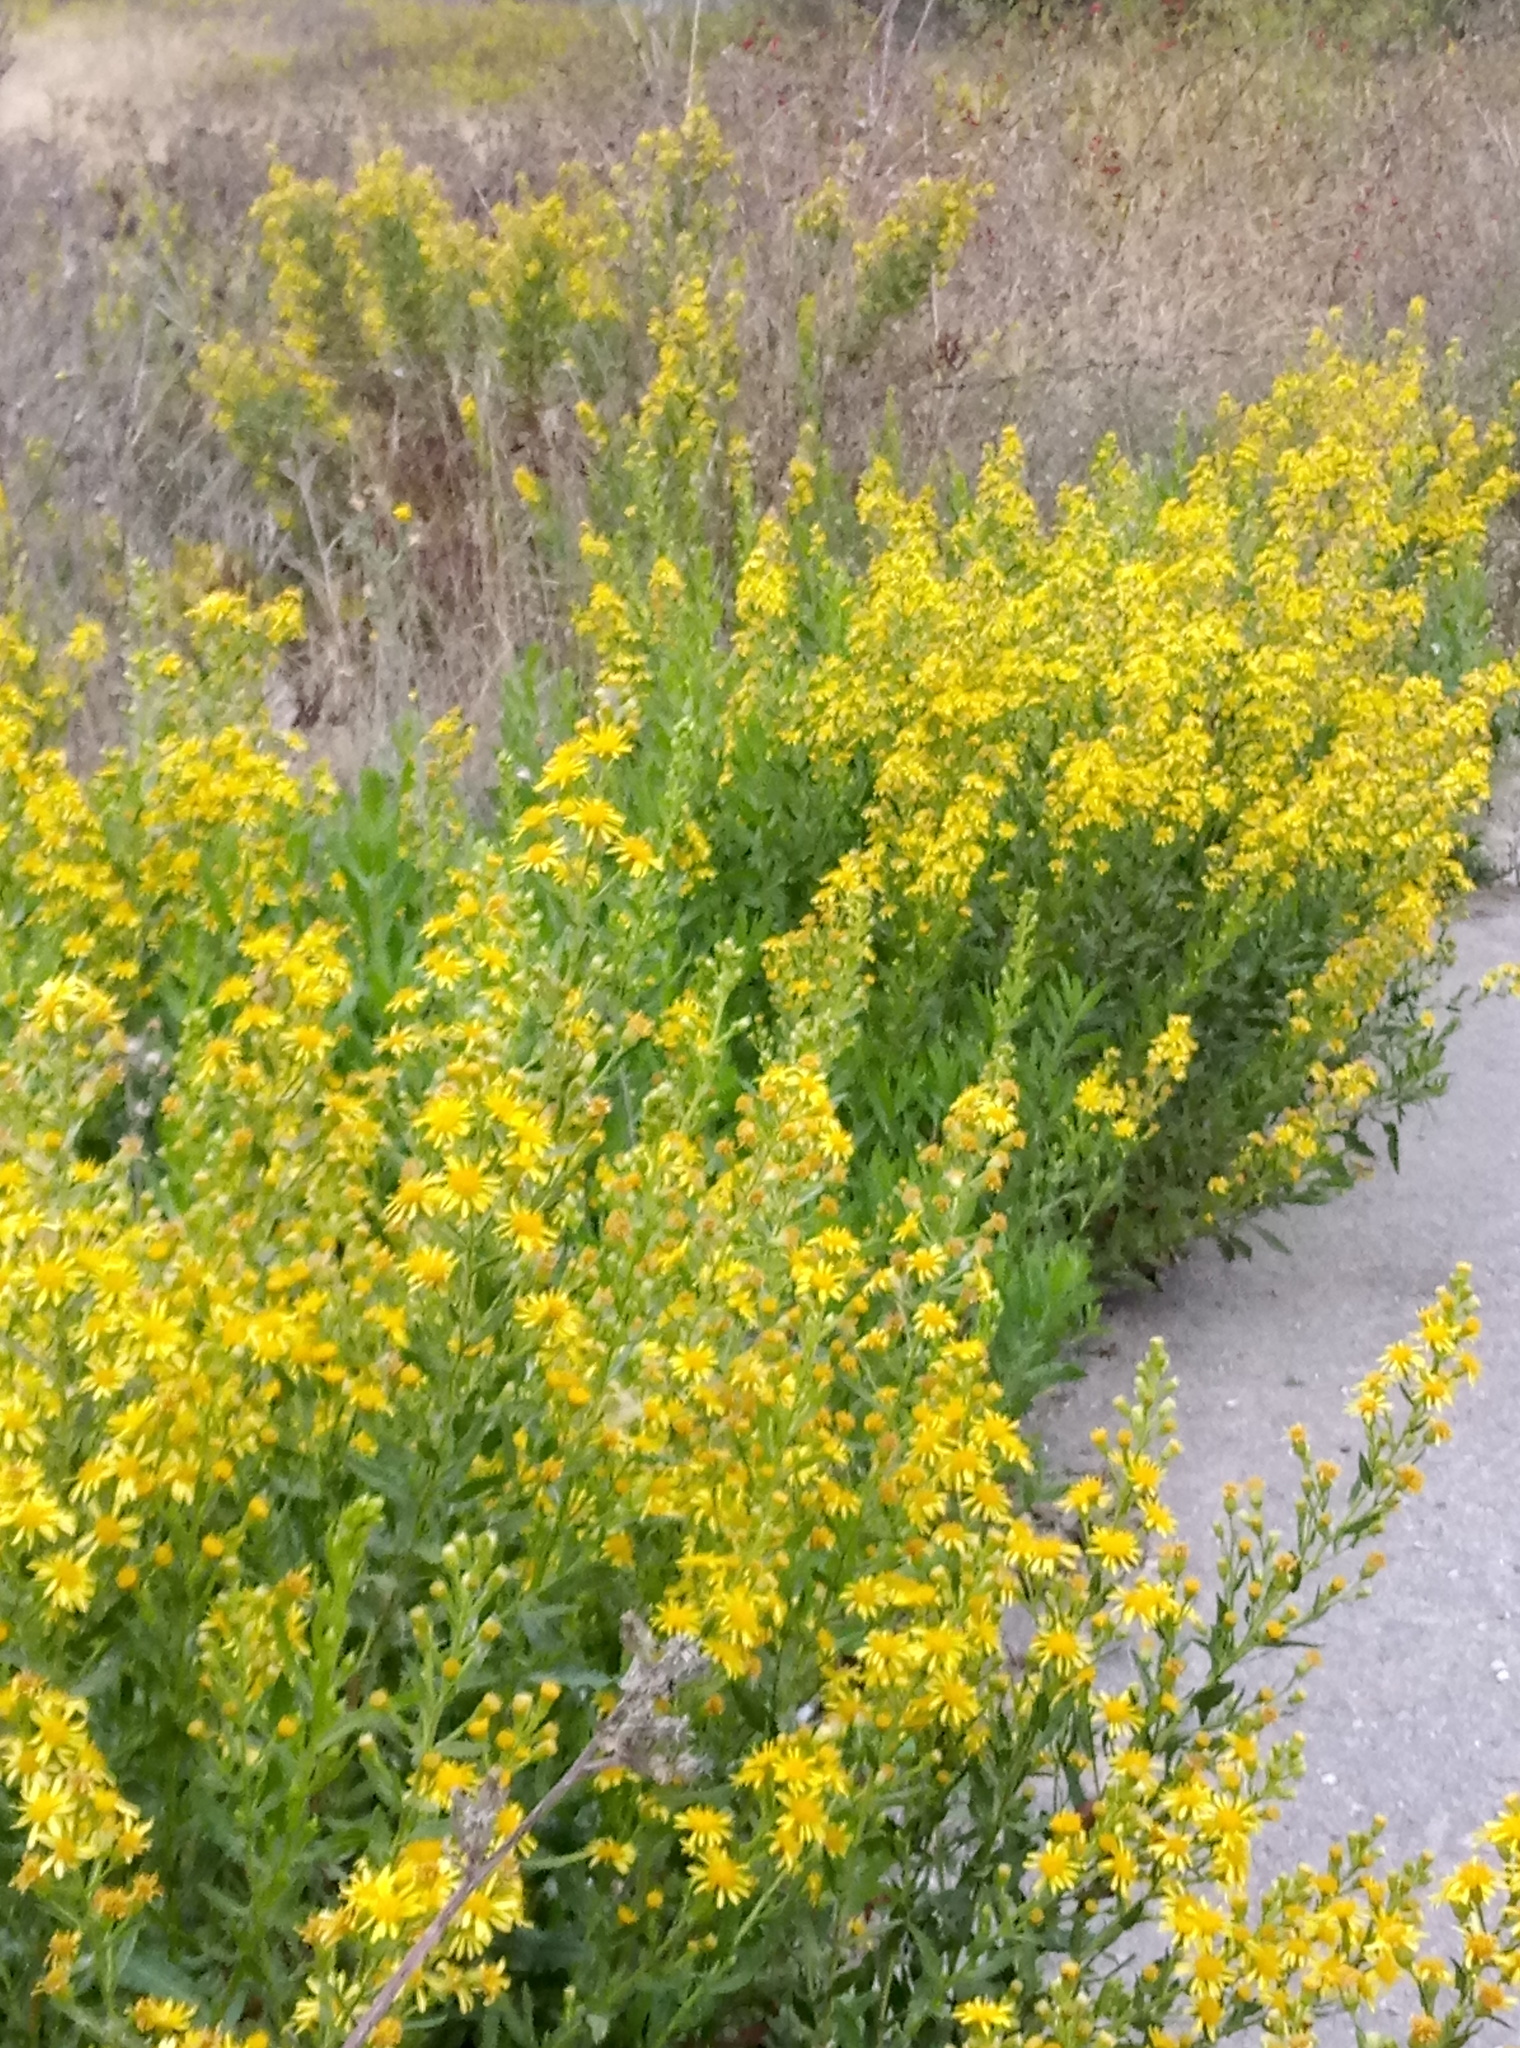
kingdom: Plantae
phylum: Tracheophyta
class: Magnoliopsida
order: Asterales
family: Asteraceae
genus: Dittrichia
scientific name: Dittrichia viscosa
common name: Woody fleabane
